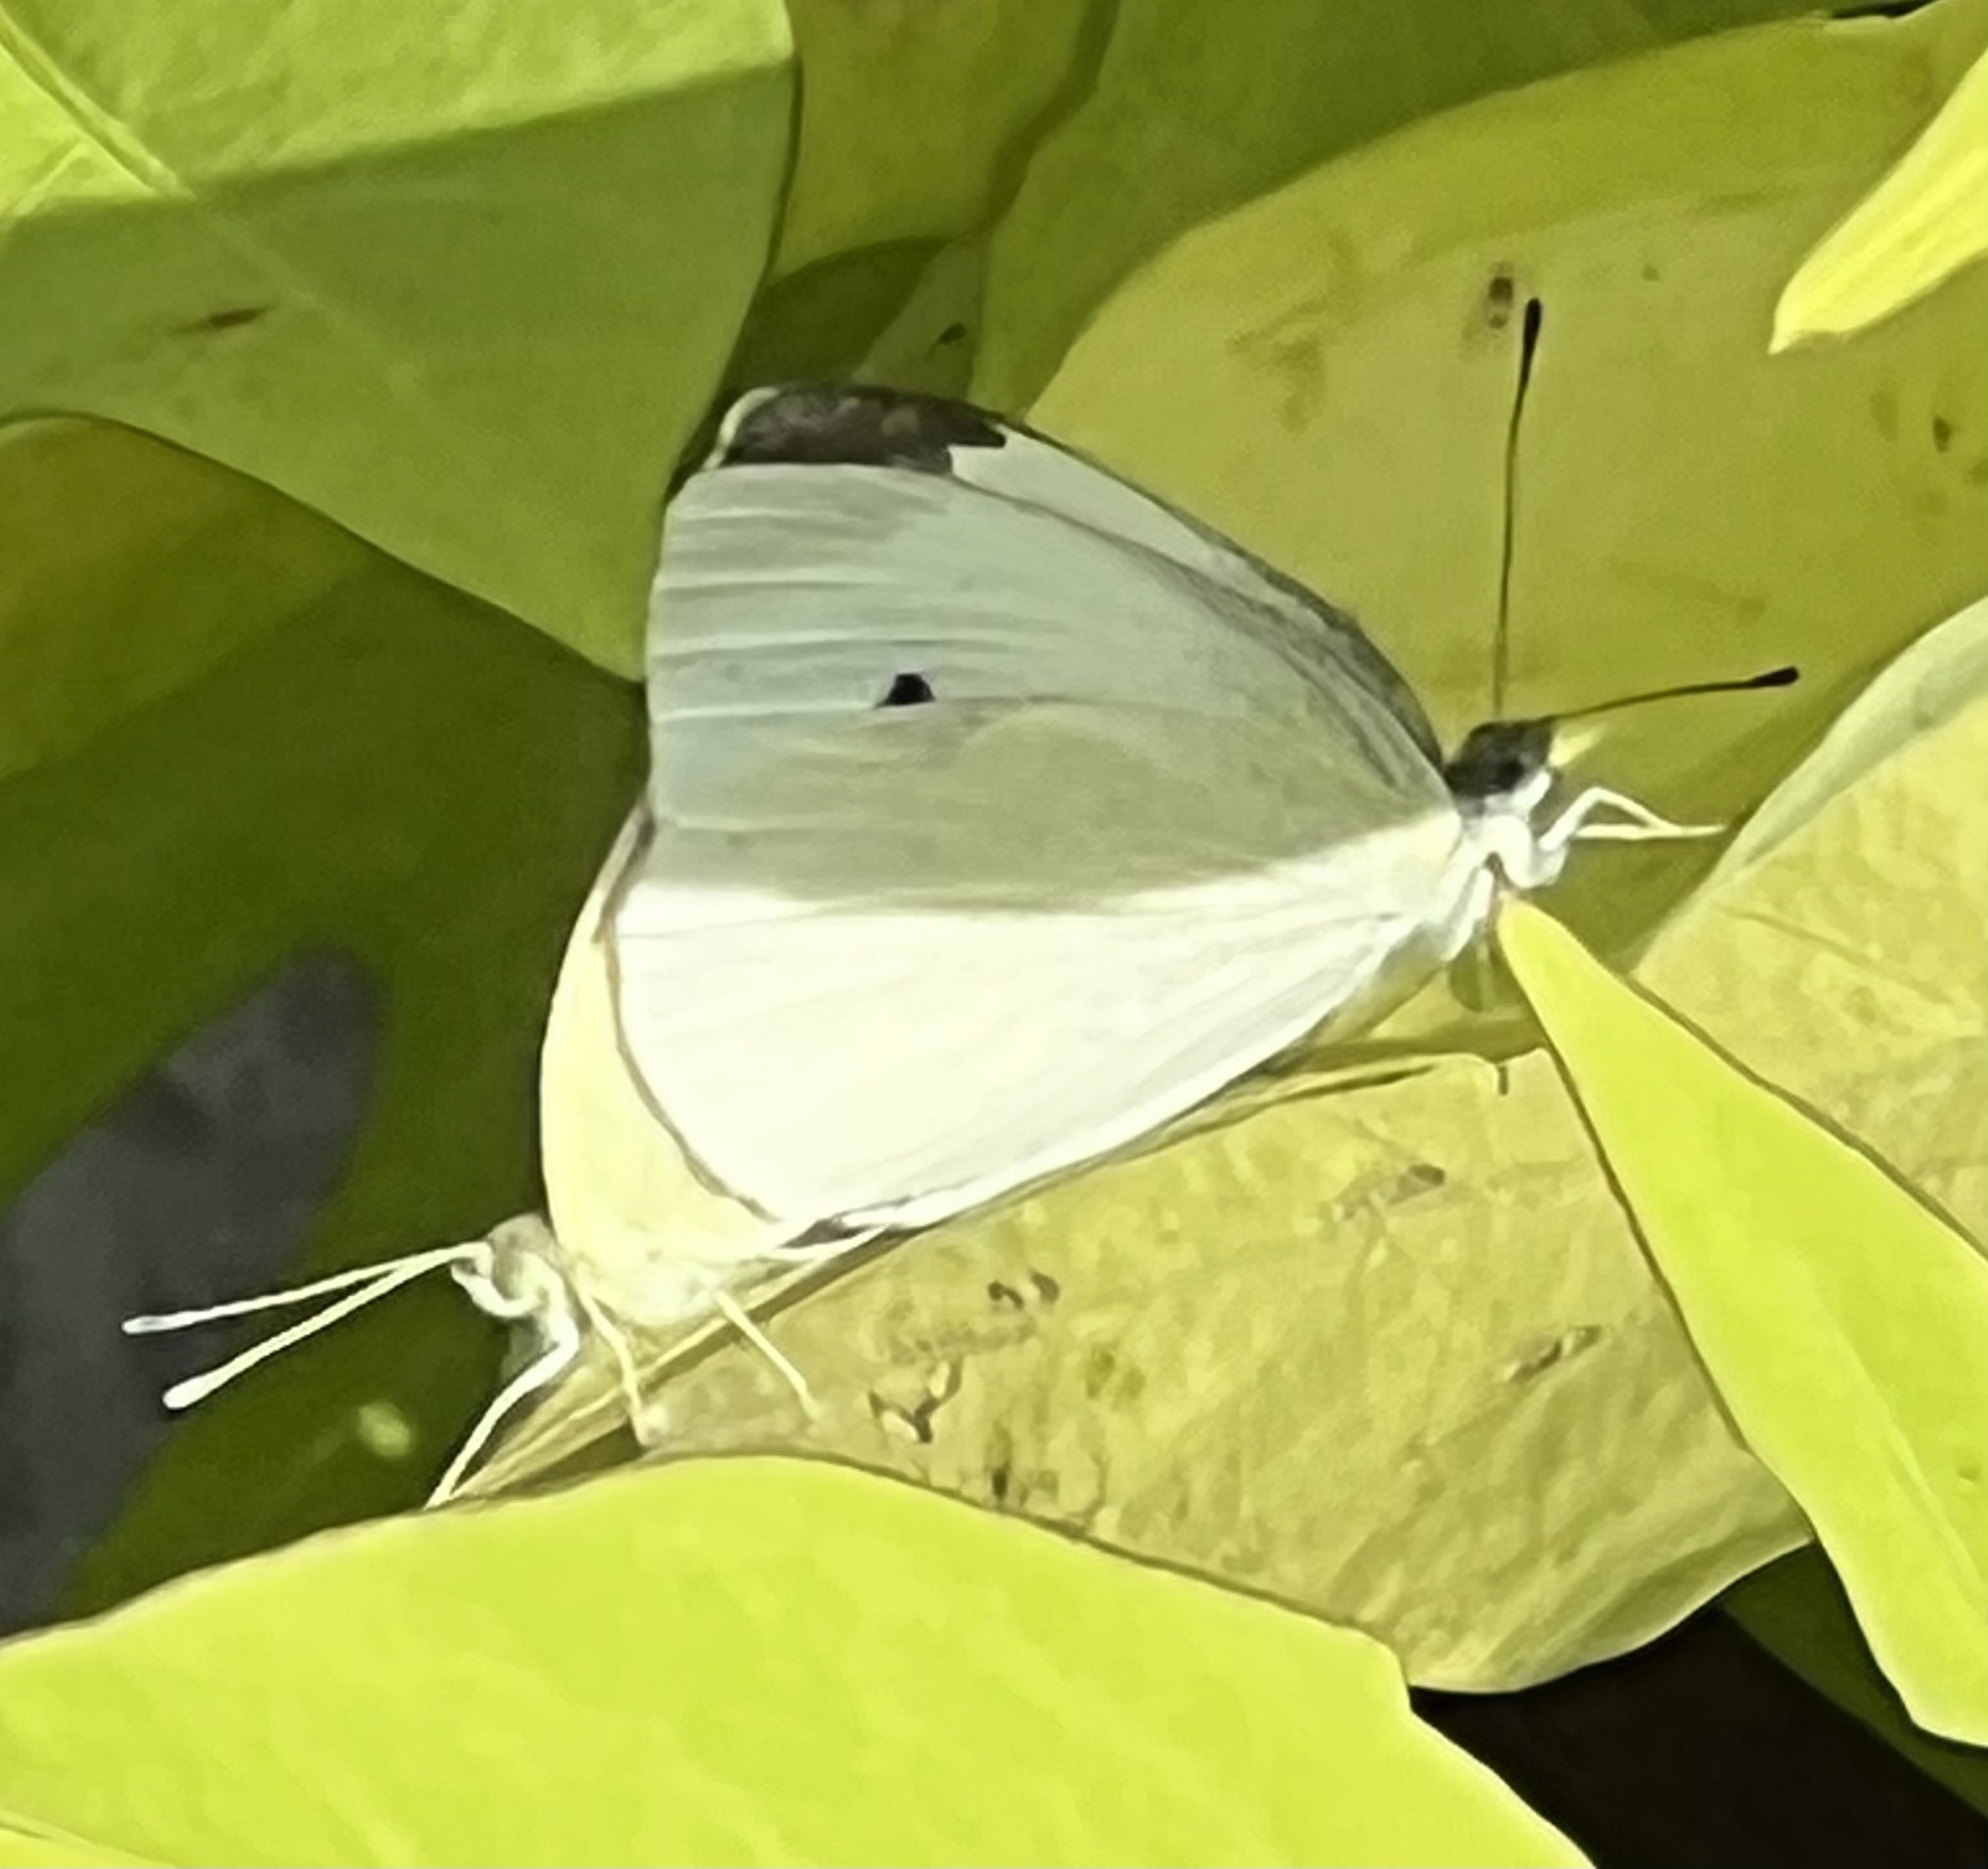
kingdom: Animalia
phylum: Arthropoda
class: Insecta
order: Lepidoptera
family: Pieridae
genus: Pieris
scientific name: Pieris rapae
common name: Small white
